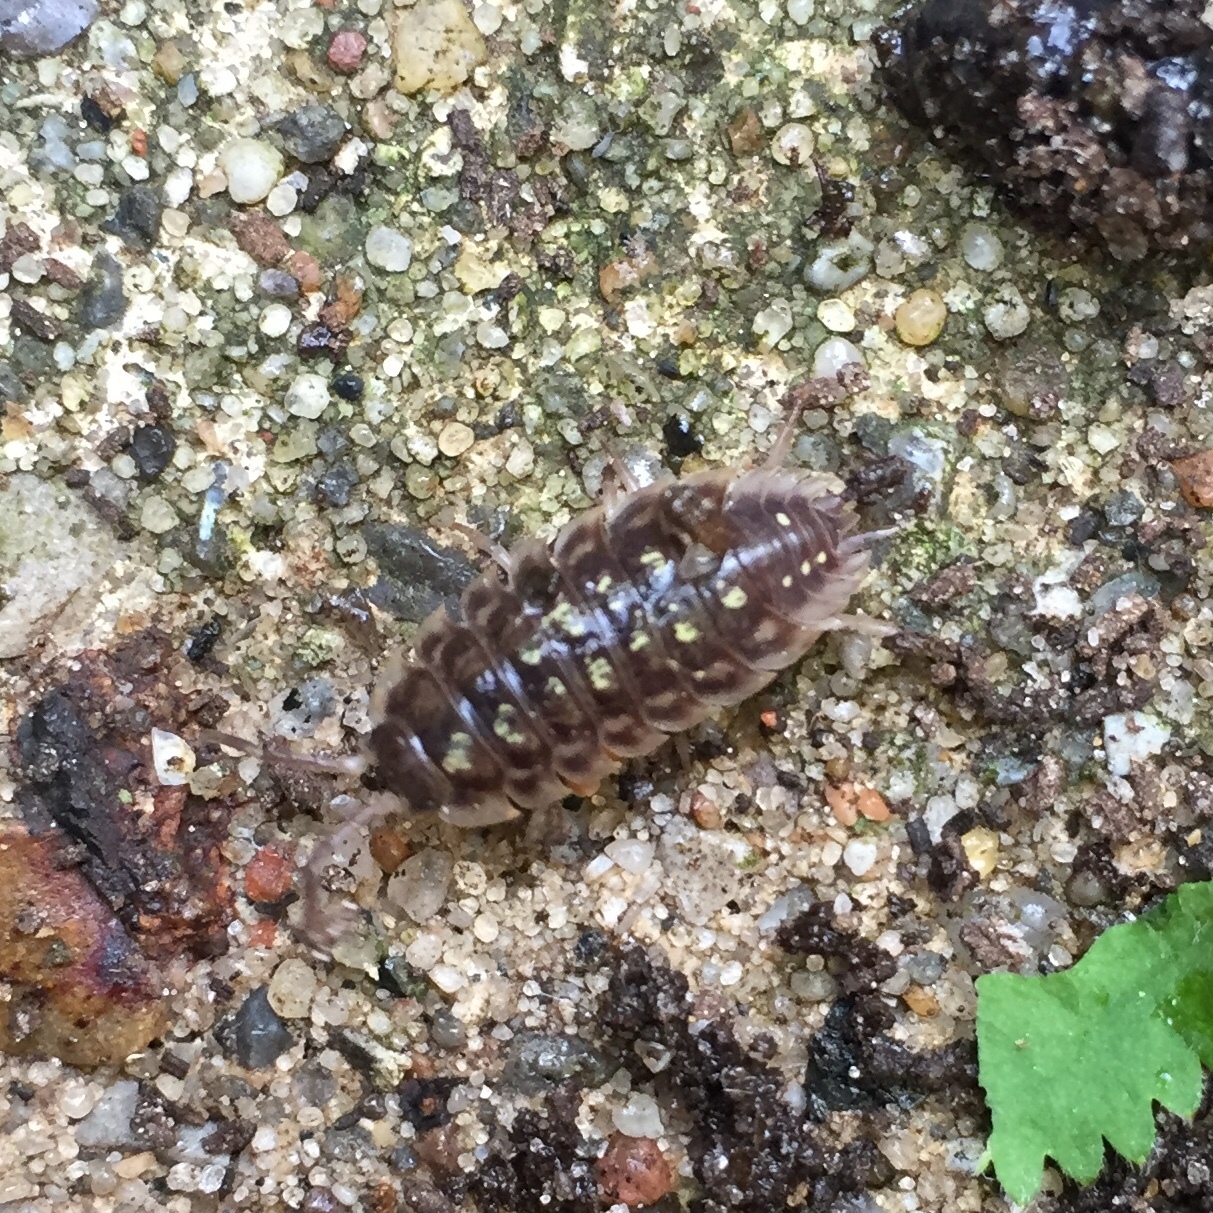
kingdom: Animalia
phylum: Arthropoda
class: Malacostraca
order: Isopoda
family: Oniscidae
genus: Oniscus
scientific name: Oniscus asellus
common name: Common shiny woodlouse
